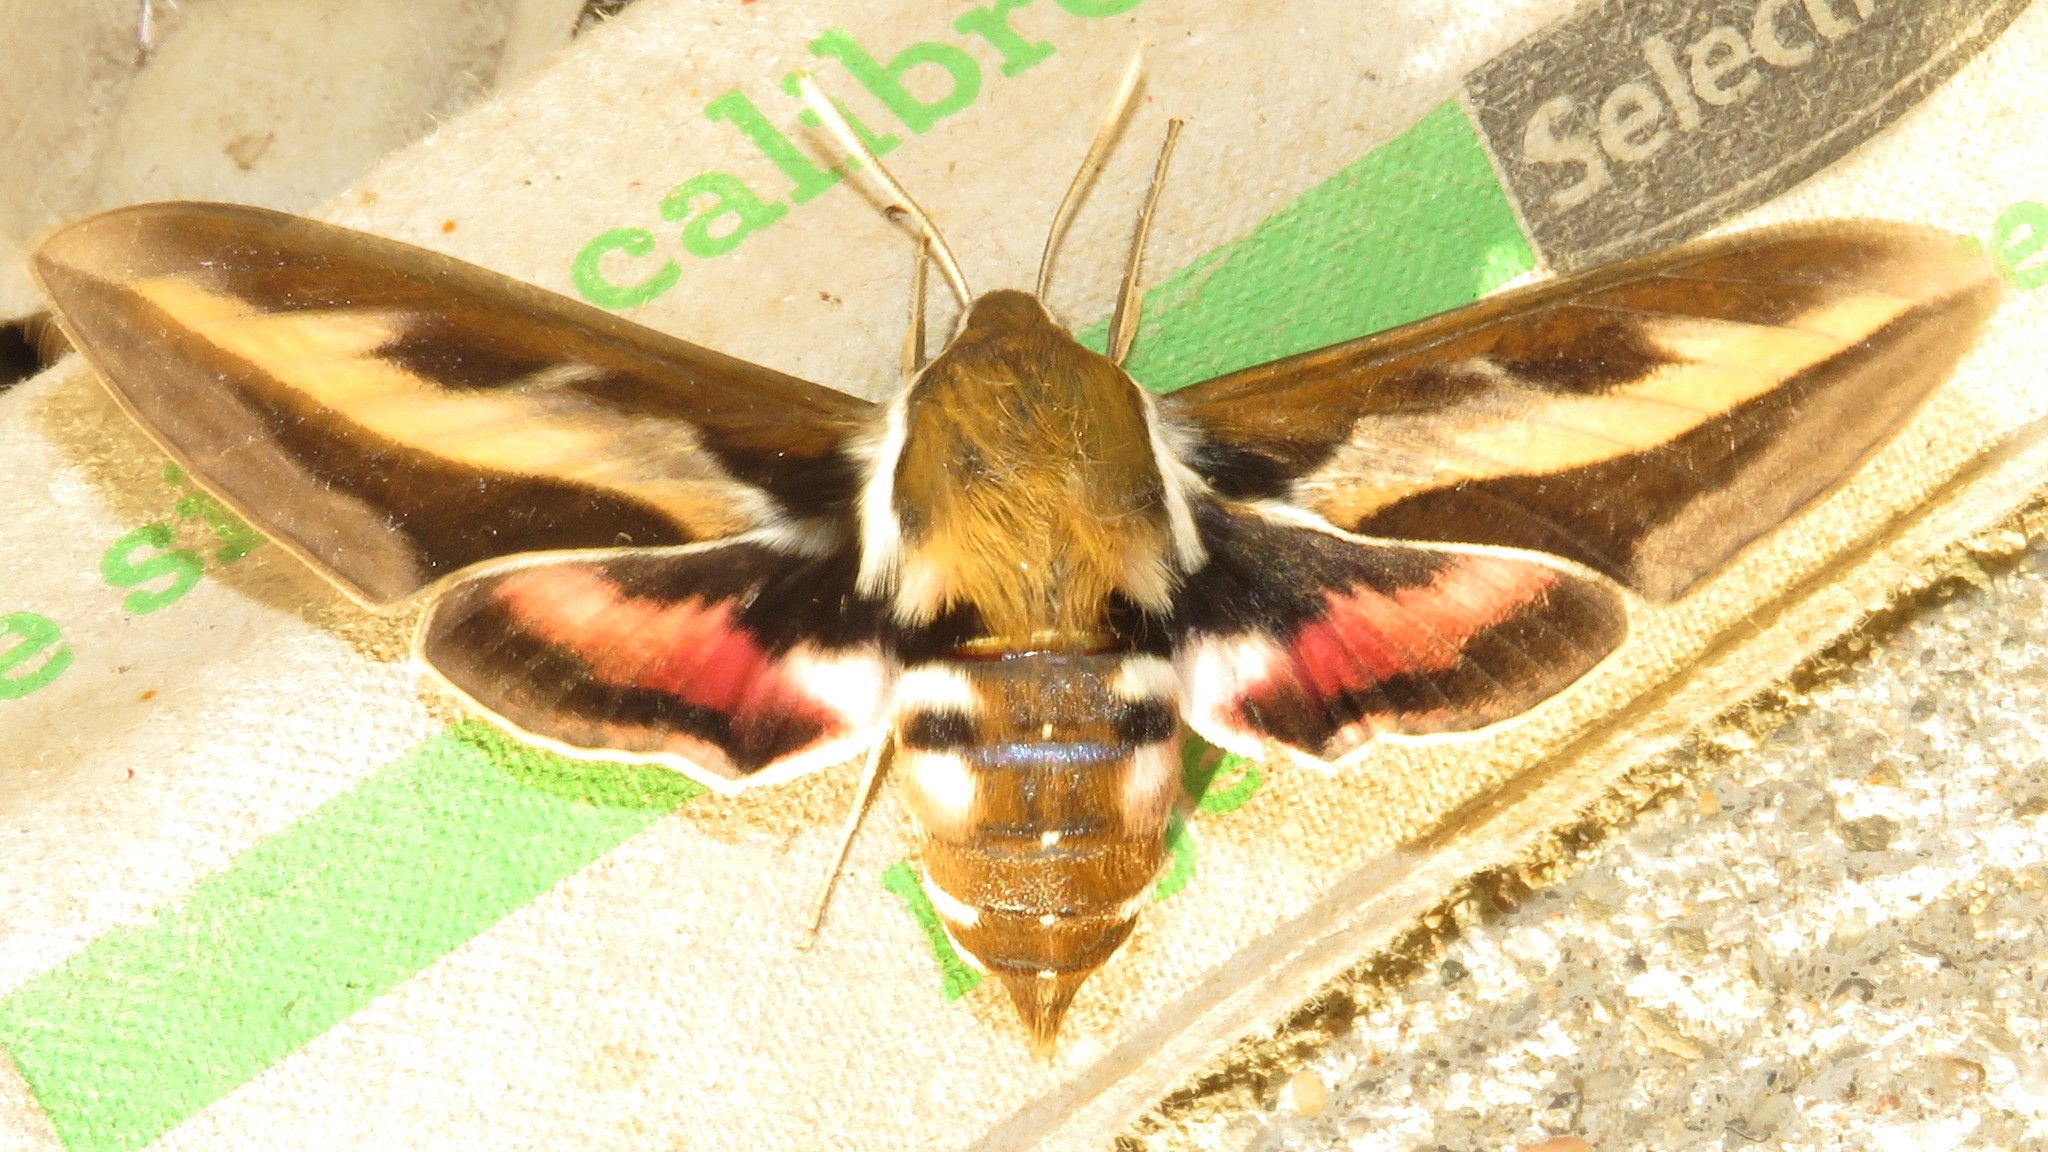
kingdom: Animalia
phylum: Arthropoda
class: Insecta
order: Lepidoptera
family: Sphingidae
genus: Hyles
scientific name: Hyles gallii
